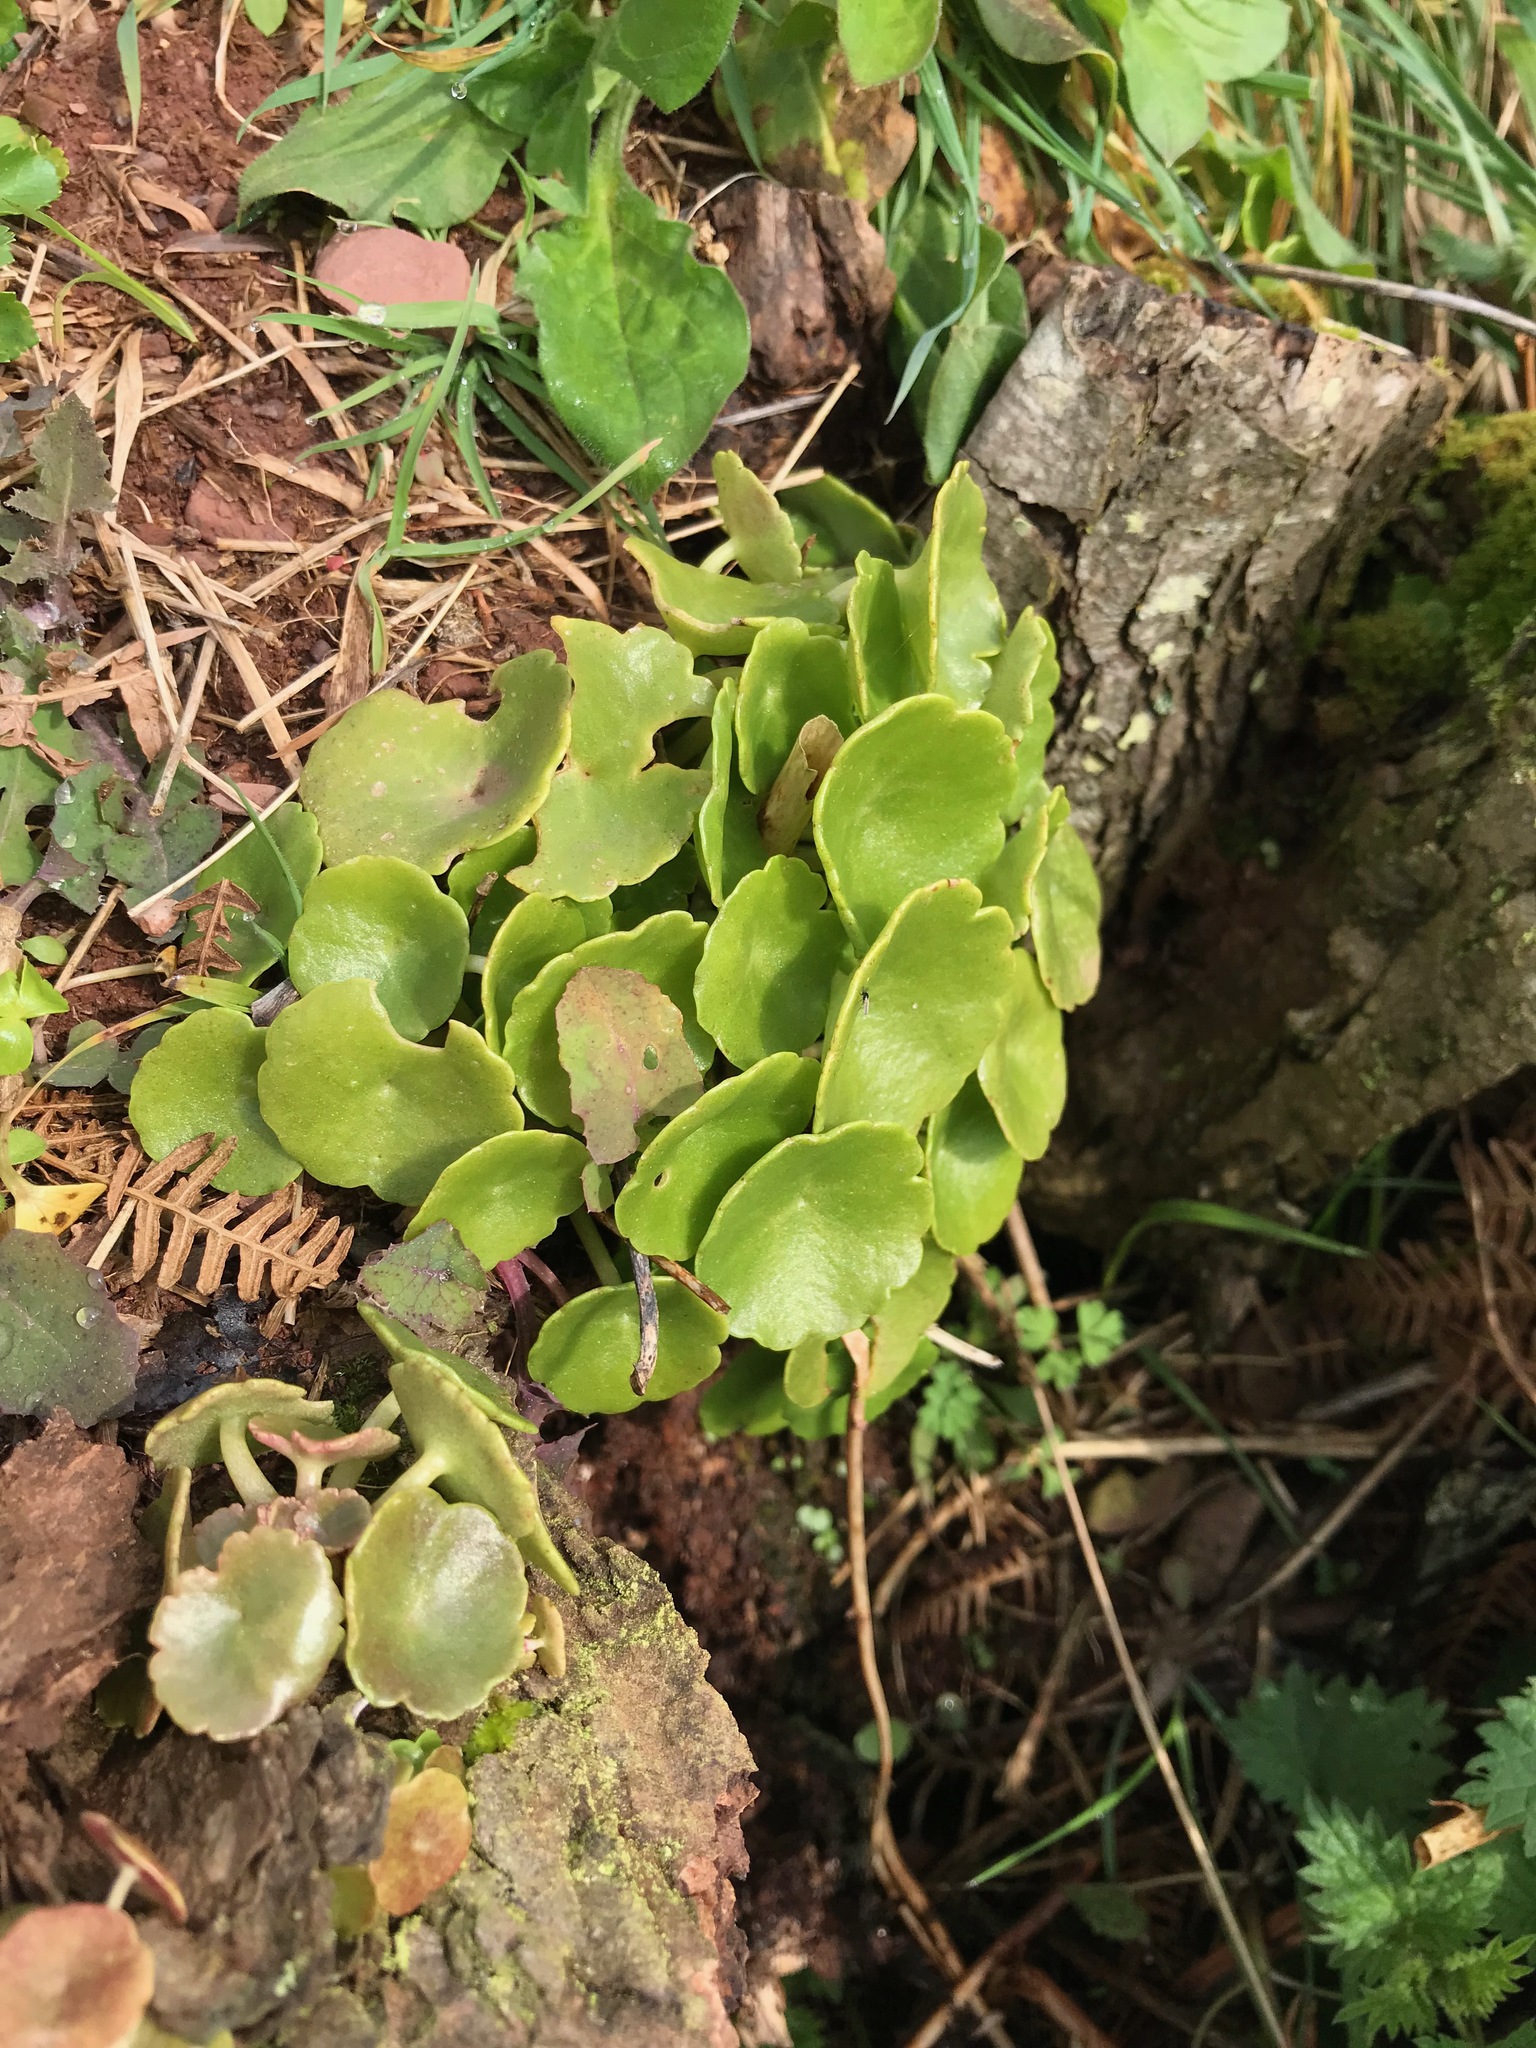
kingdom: Plantae
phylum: Tracheophyta
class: Magnoliopsida
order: Saxifragales
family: Crassulaceae
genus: Umbilicus
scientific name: Umbilicus rupestris
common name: Navelwort
